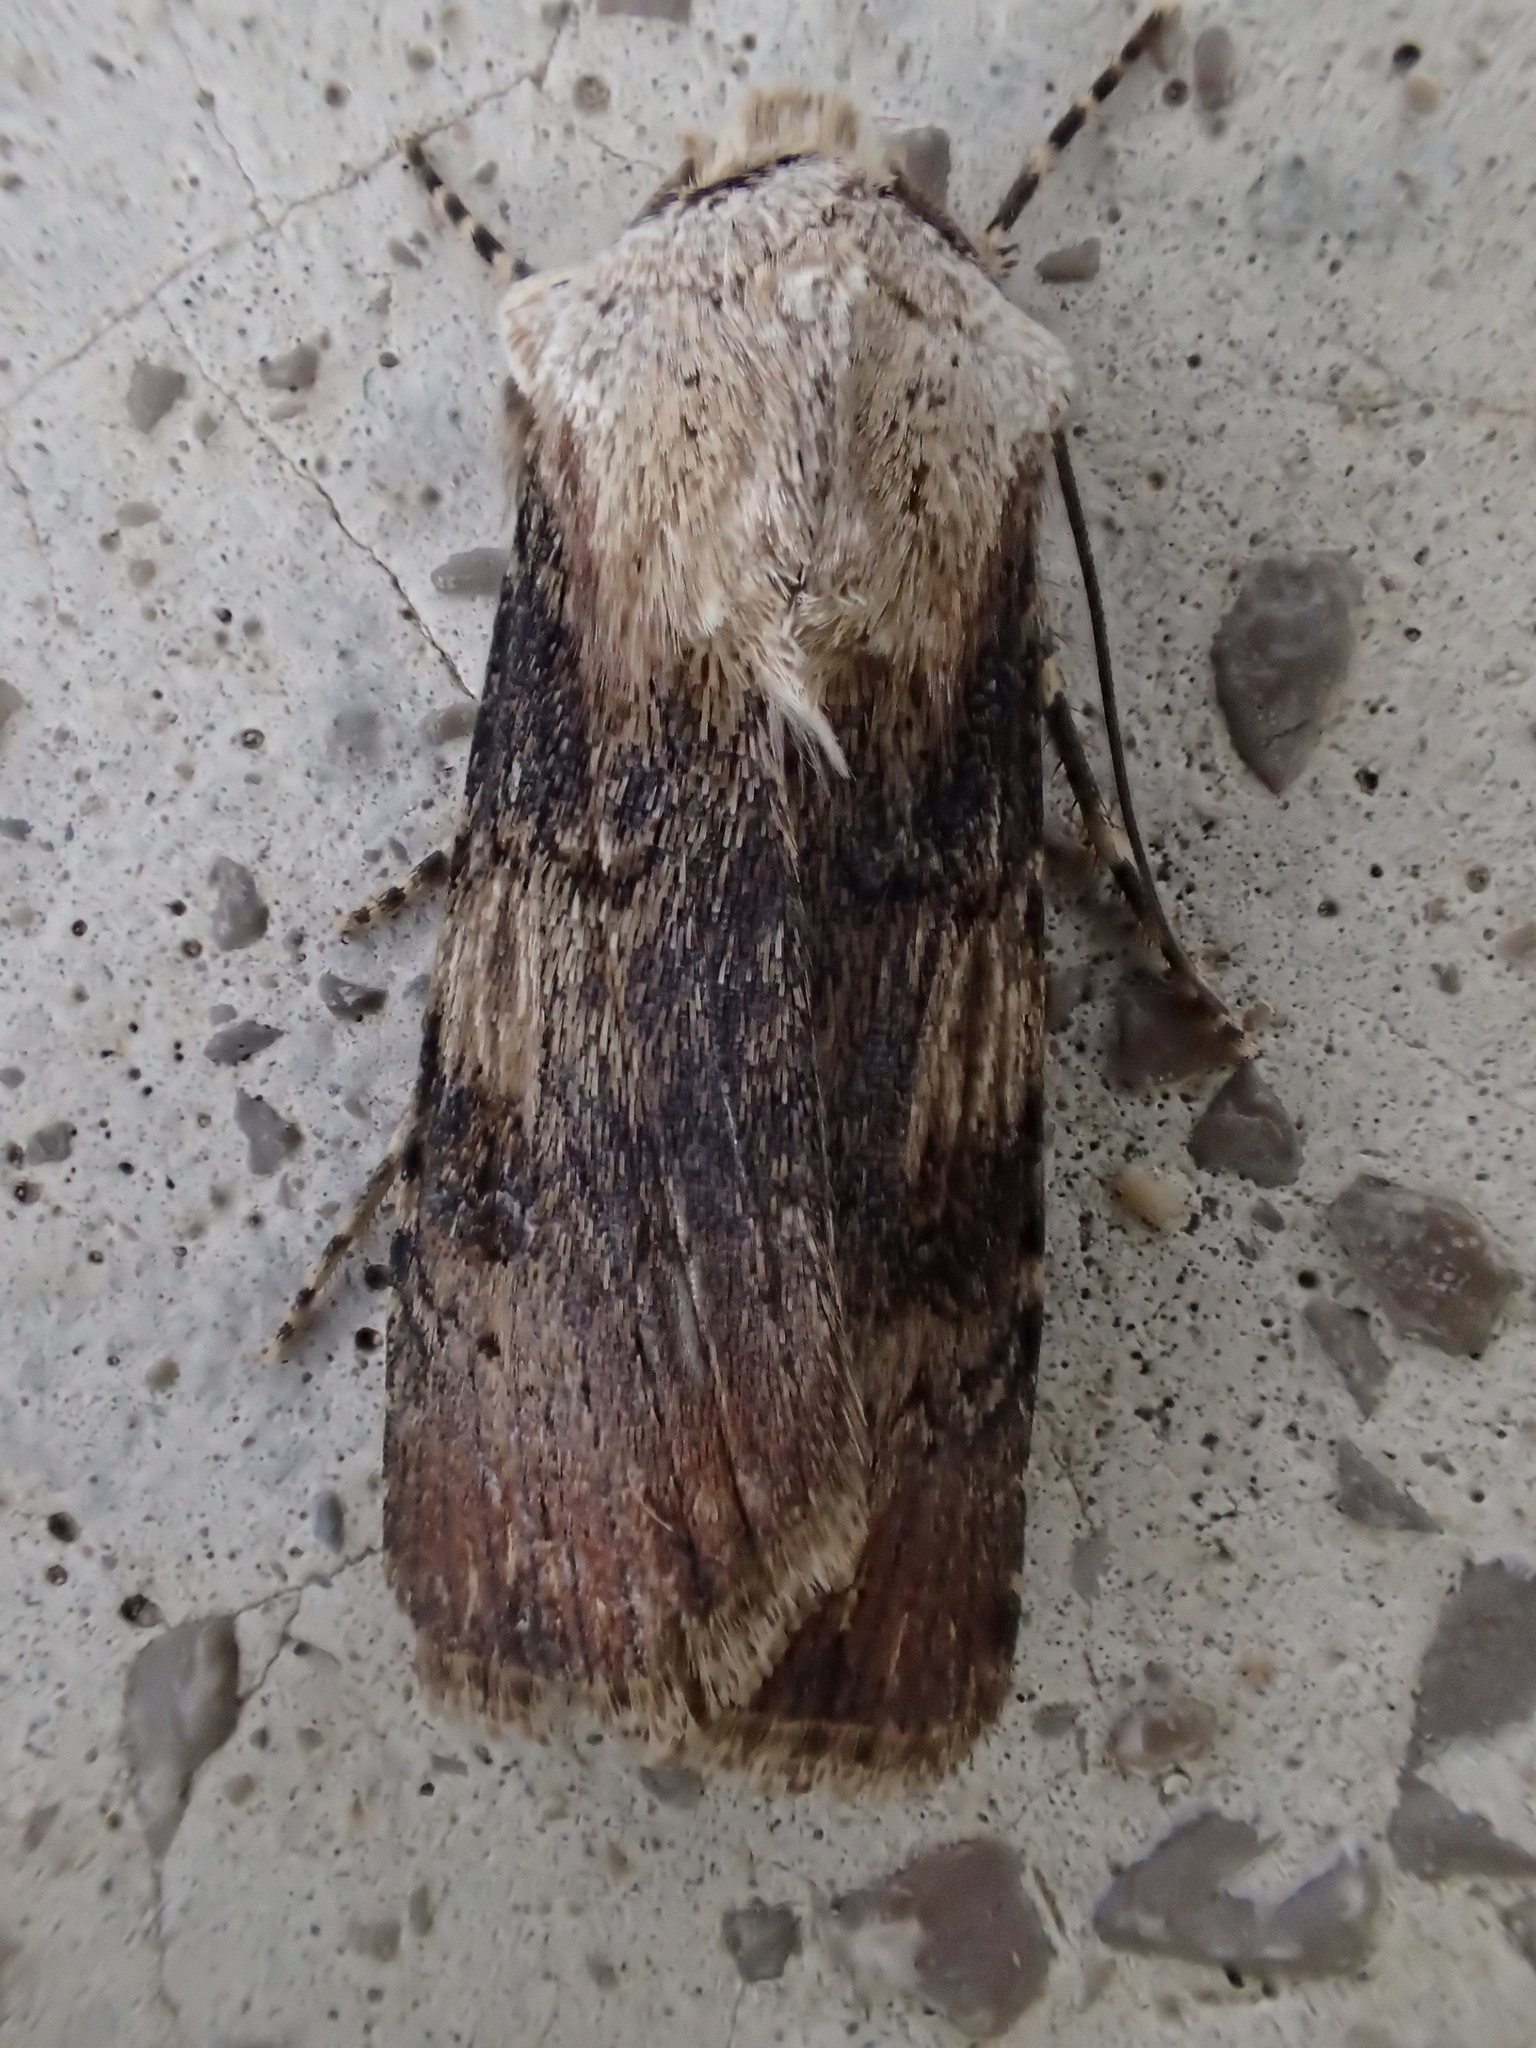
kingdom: Animalia
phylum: Arthropoda
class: Insecta
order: Lepidoptera
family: Noctuidae
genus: Agrotis
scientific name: Agrotis puta
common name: Shuttle-shaped dart
